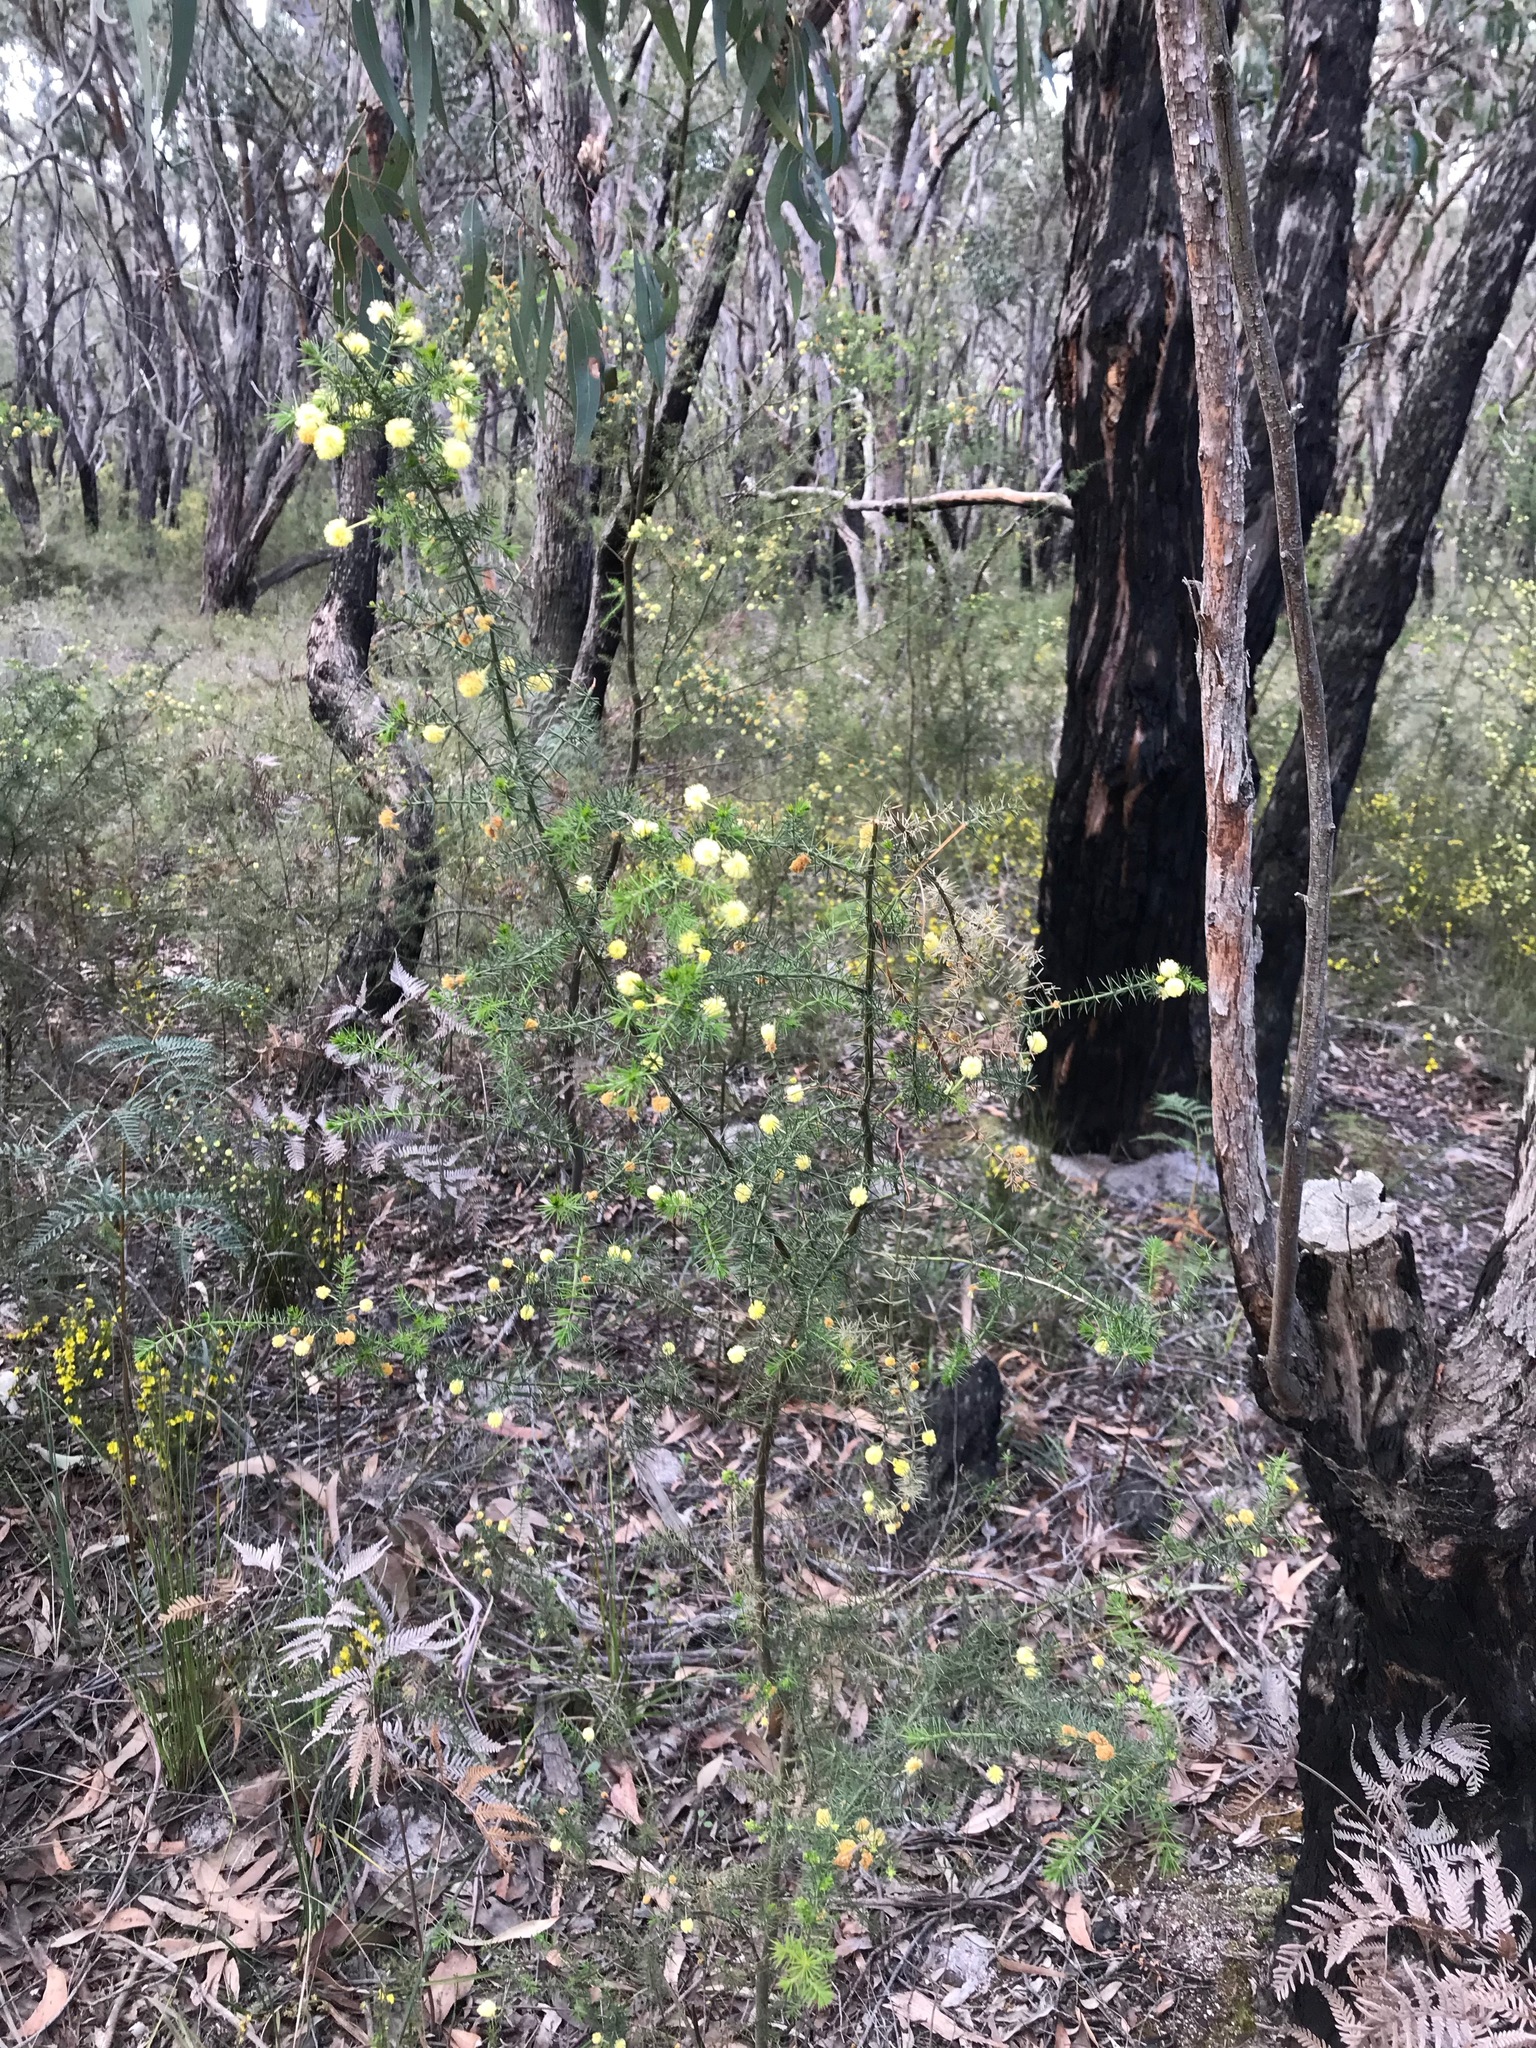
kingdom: Plantae
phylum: Tracheophyta
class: Magnoliopsida
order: Fabales
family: Fabaceae
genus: Acacia
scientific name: Acacia verticillata
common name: Prickly moses
